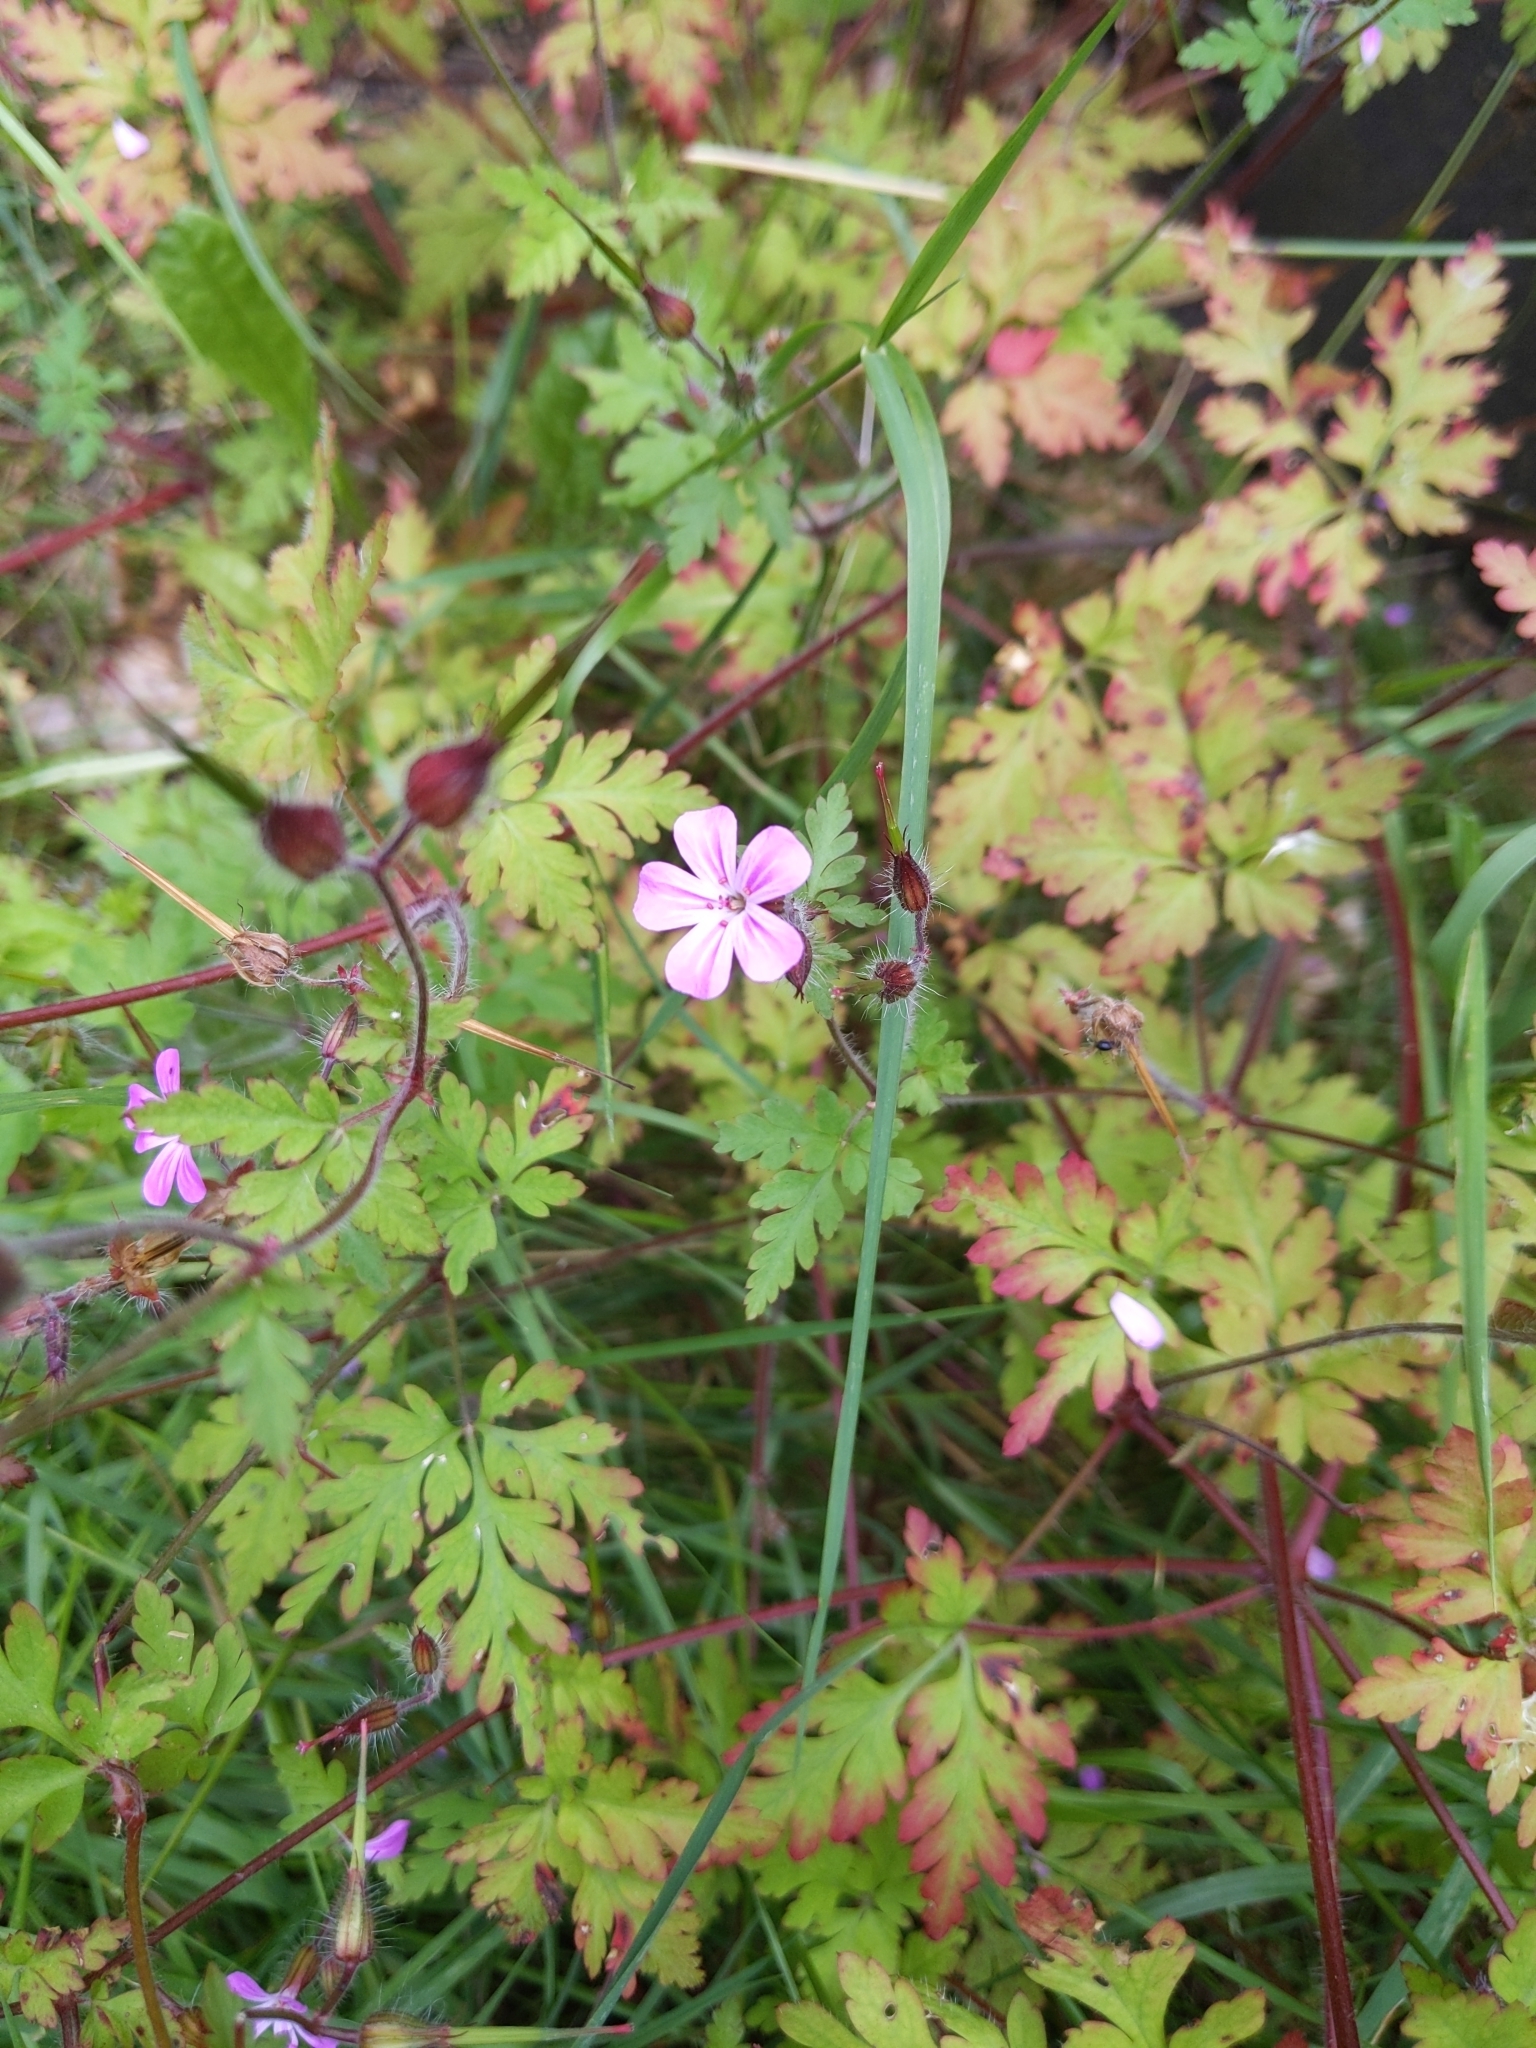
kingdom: Plantae
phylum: Tracheophyta
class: Magnoliopsida
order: Geraniales
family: Geraniaceae
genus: Geranium
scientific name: Geranium robertianum
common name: Herb-robert
